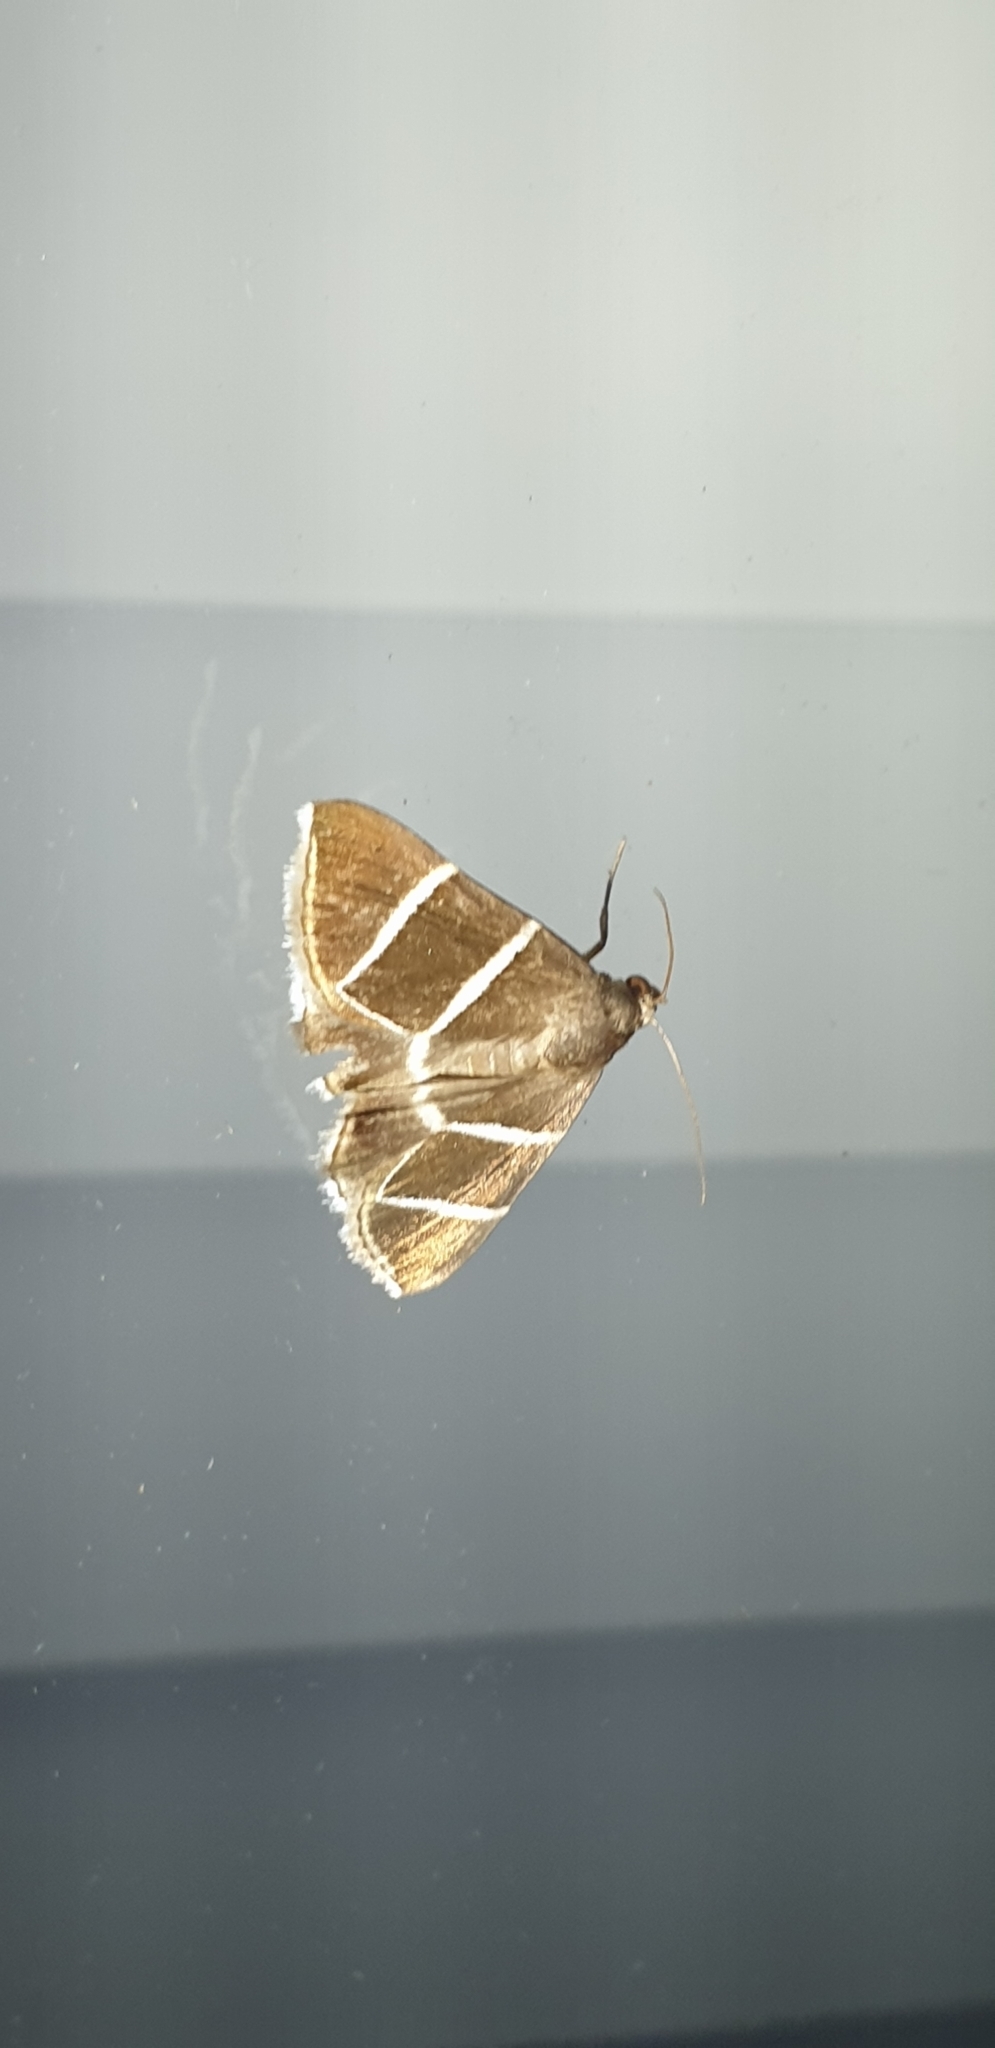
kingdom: Animalia
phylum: Arthropoda
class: Insecta
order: Lepidoptera
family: Erebidae
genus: Grammodes
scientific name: Grammodes justa
